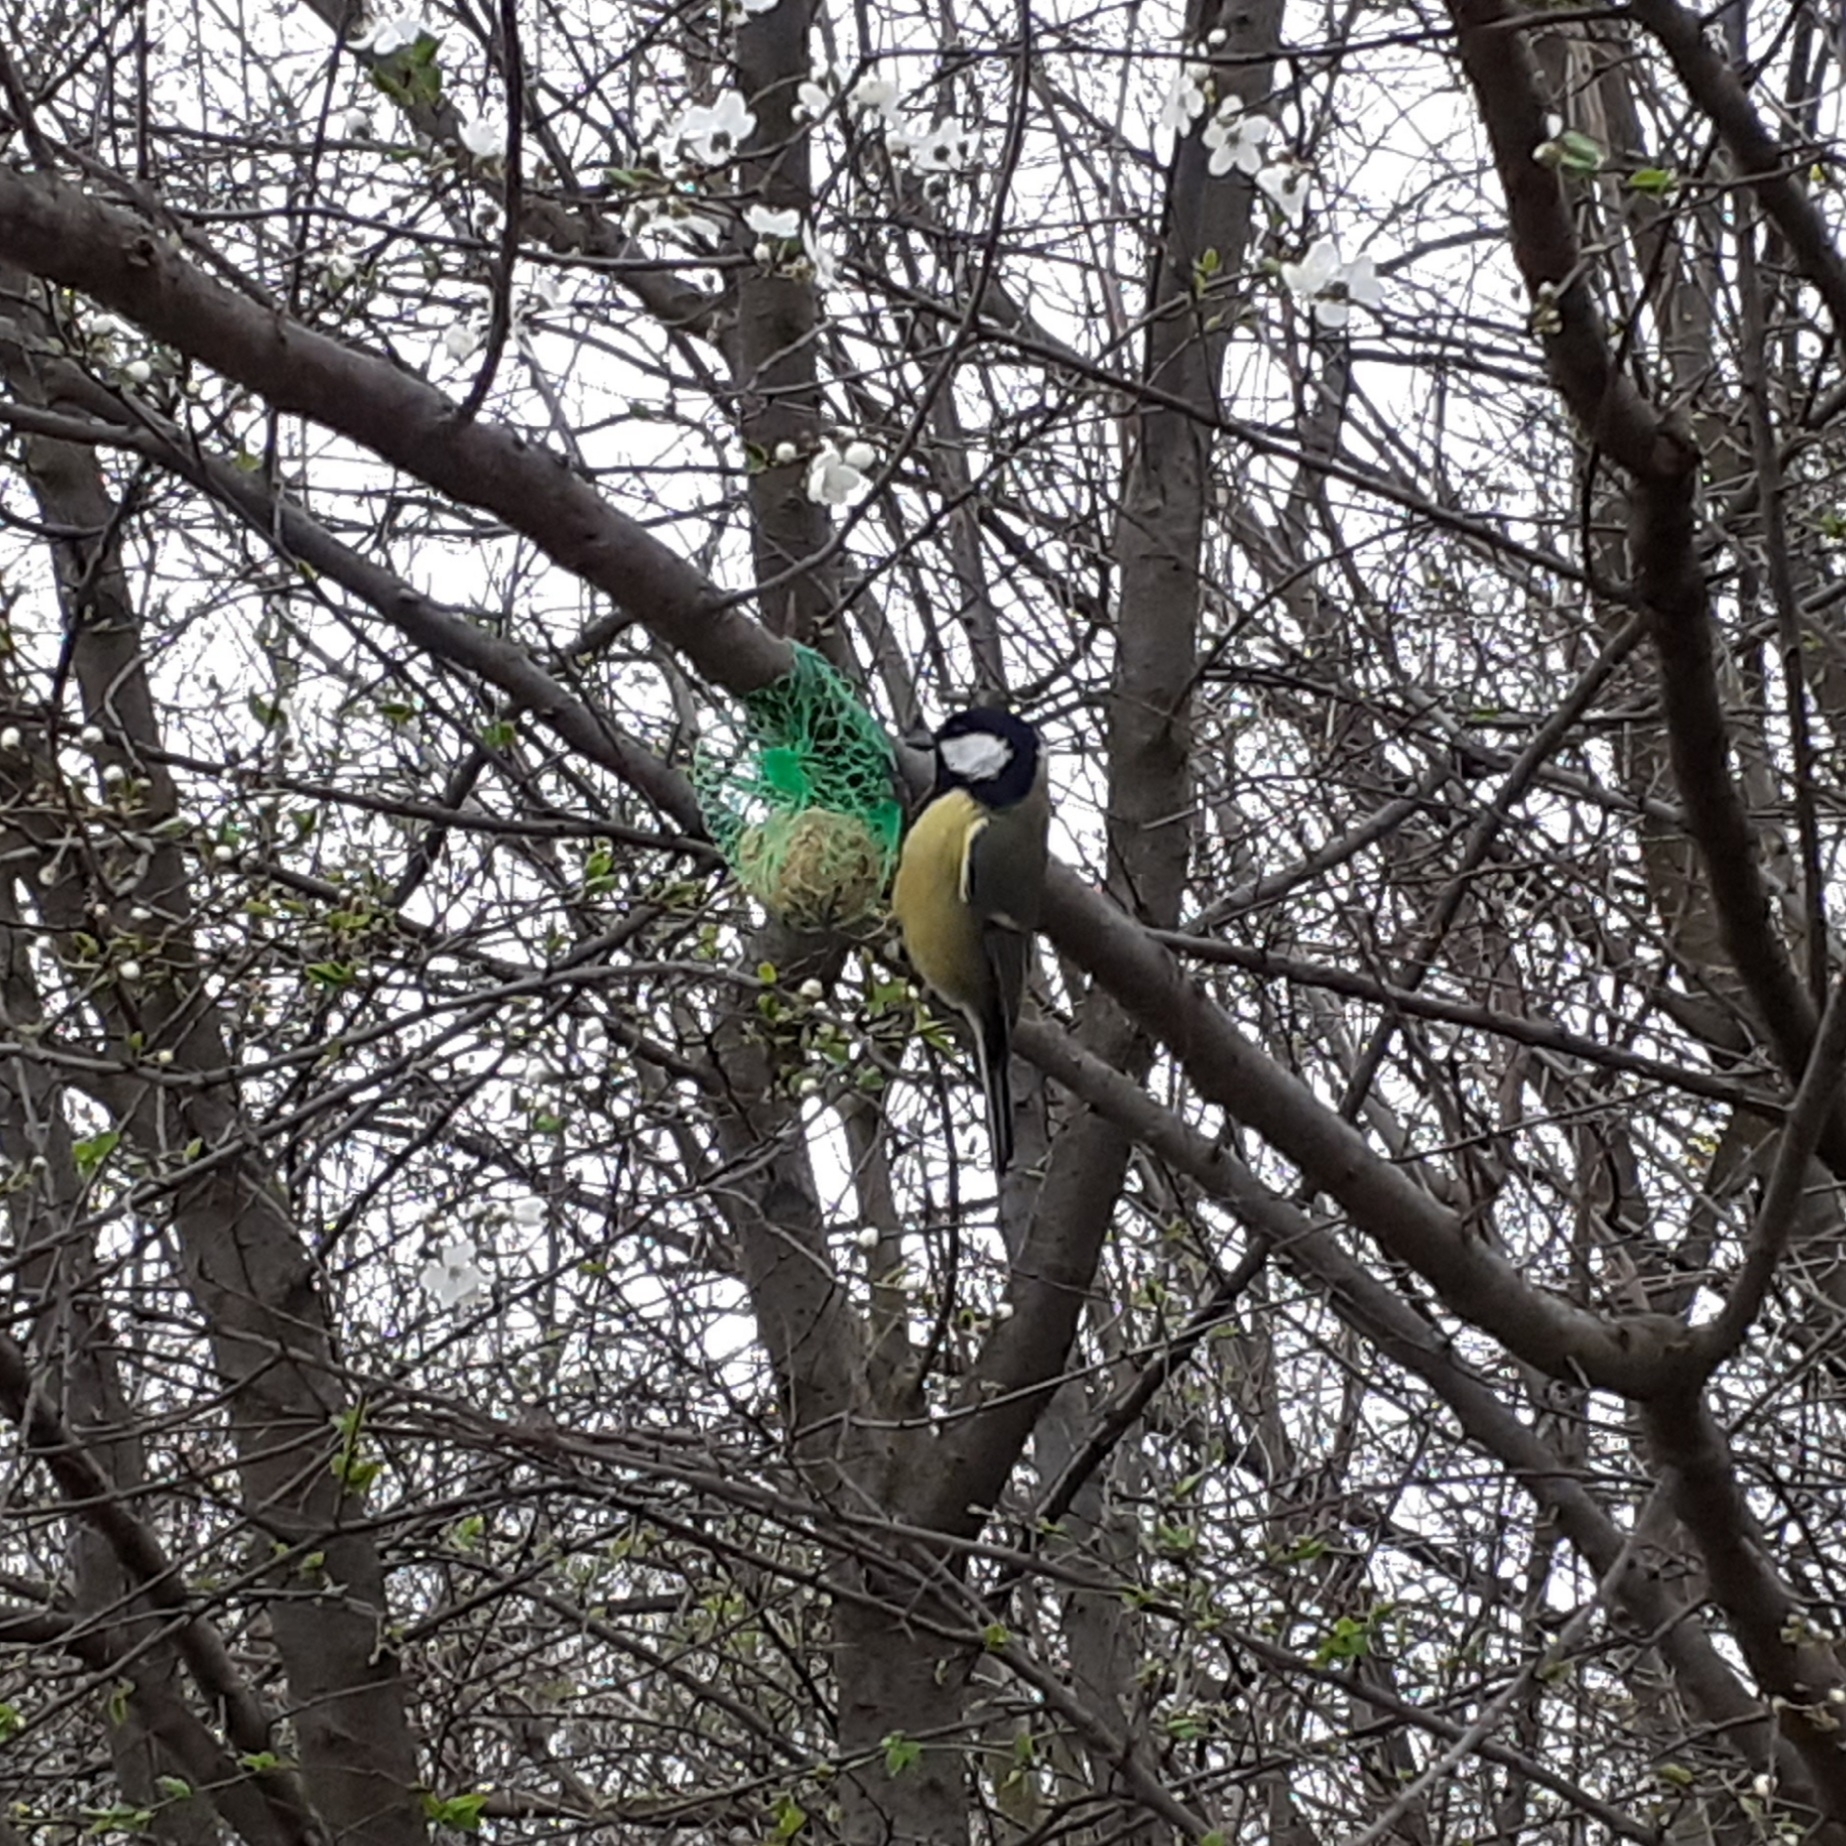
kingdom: Animalia
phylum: Chordata
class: Aves
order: Passeriformes
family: Paridae
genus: Parus
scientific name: Parus major
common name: Great tit
